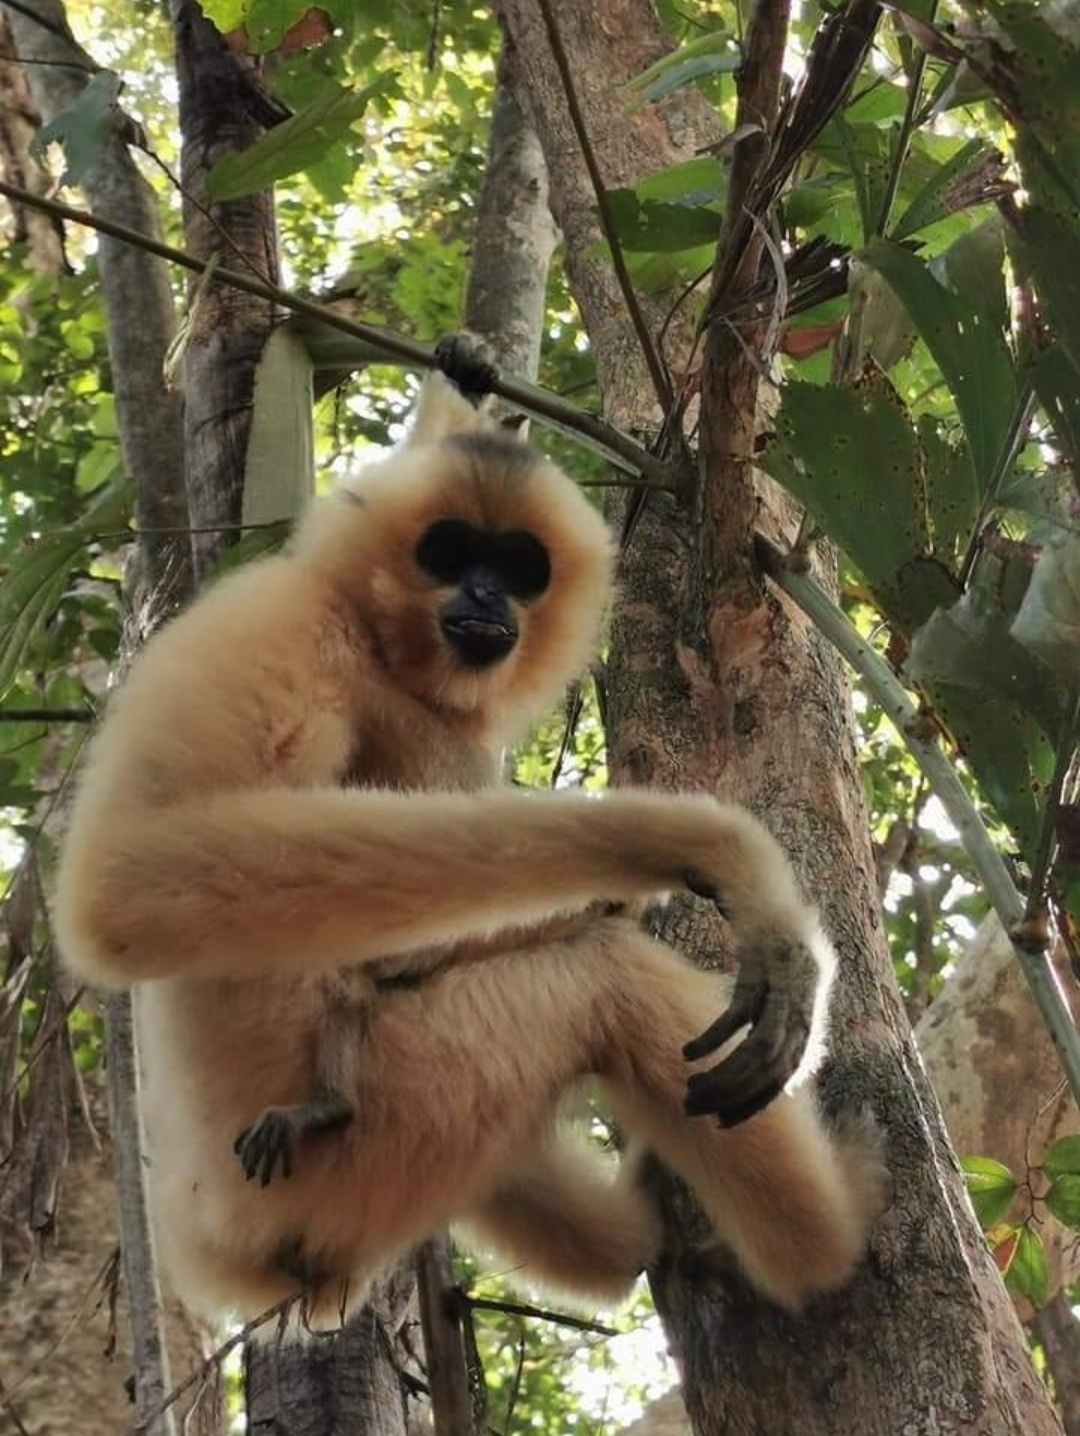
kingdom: Animalia
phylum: Chordata
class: Mammalia
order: Primates
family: Hylobatidae
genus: Nomascus
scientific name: Nomascus gabriellae
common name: Red-cheeked gibbon
